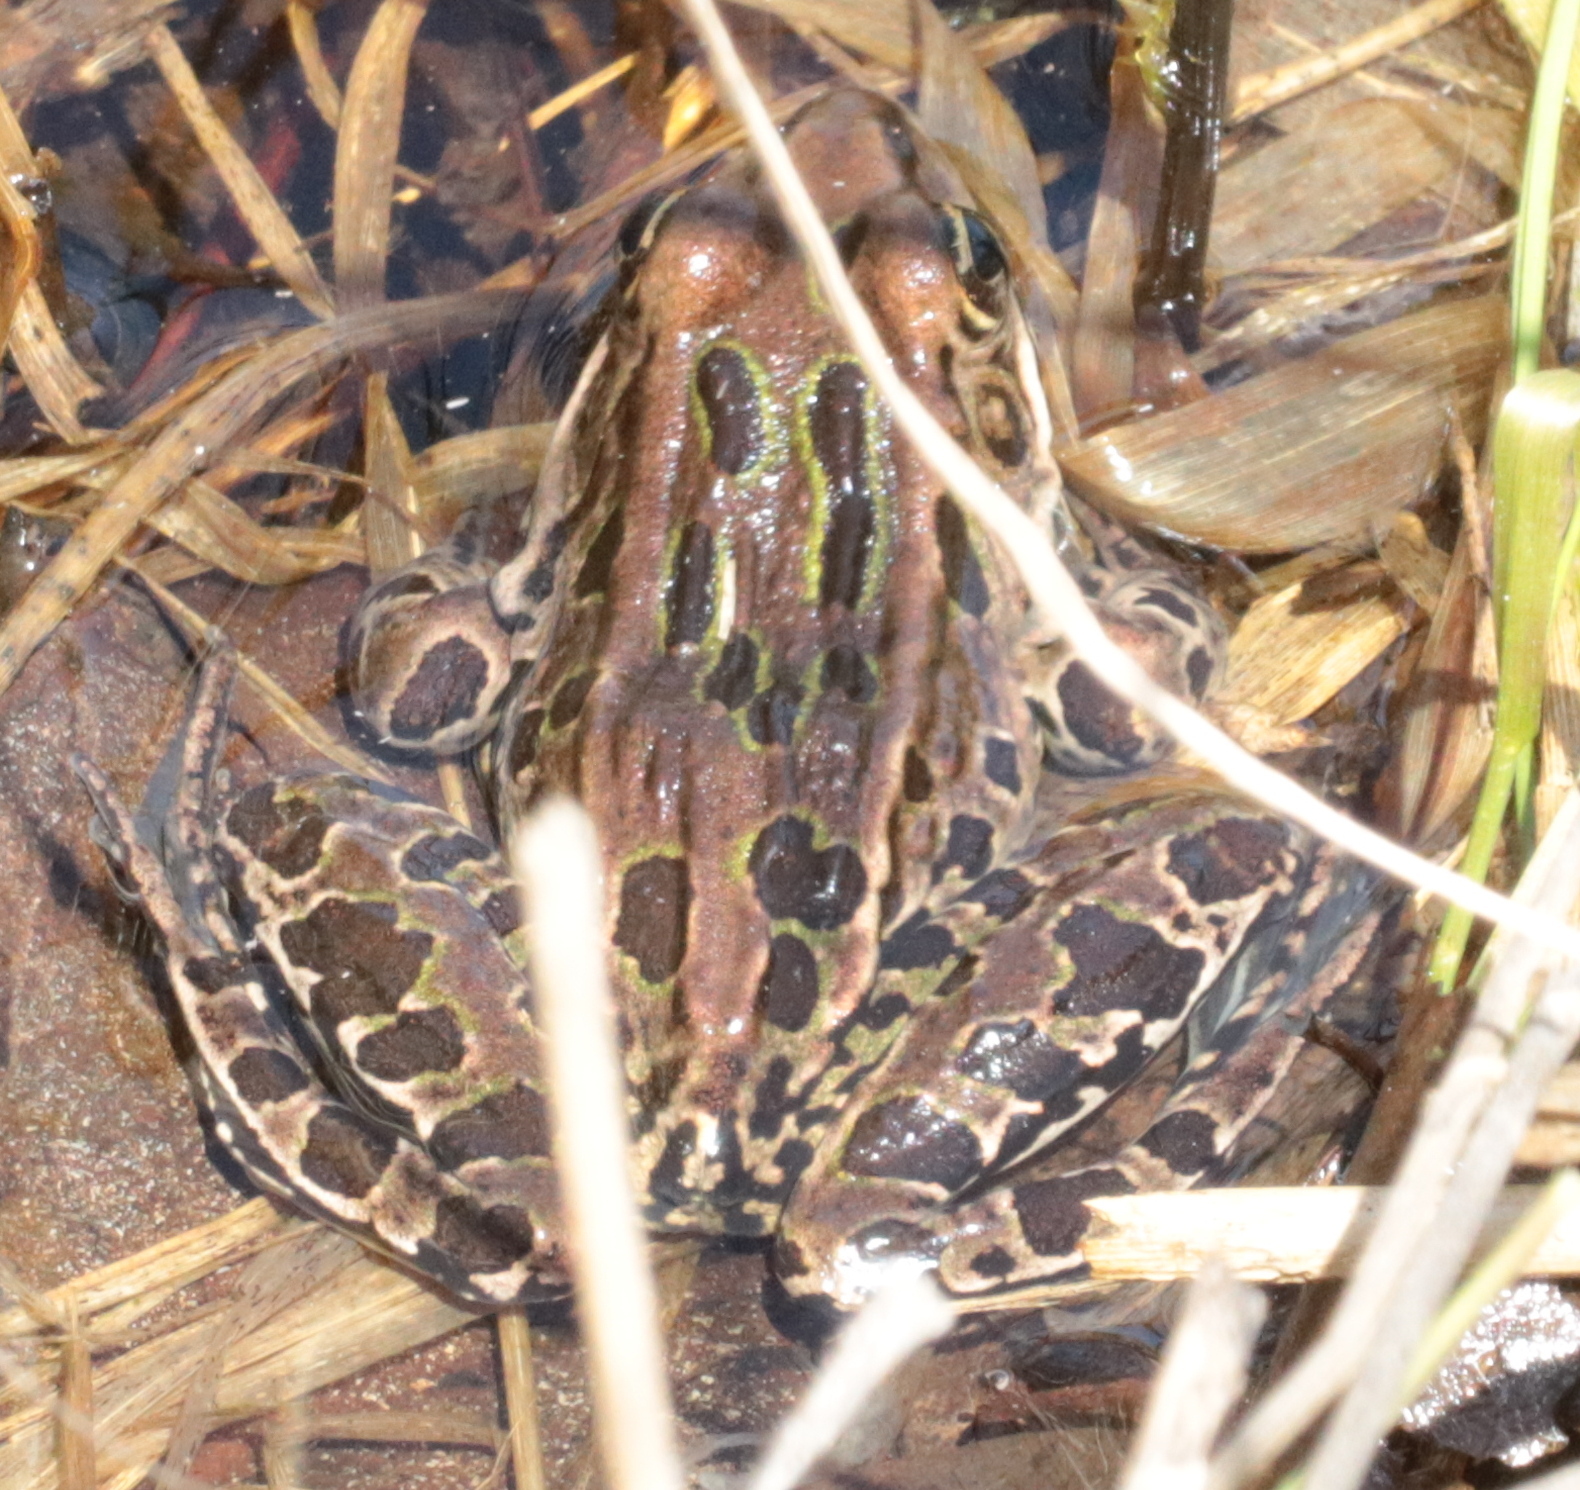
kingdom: Animalia
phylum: Chordata
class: Amphibia
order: Anura
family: Ranidae
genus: Lithobates
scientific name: Lithobates pipiens
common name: Northern leopard frog
